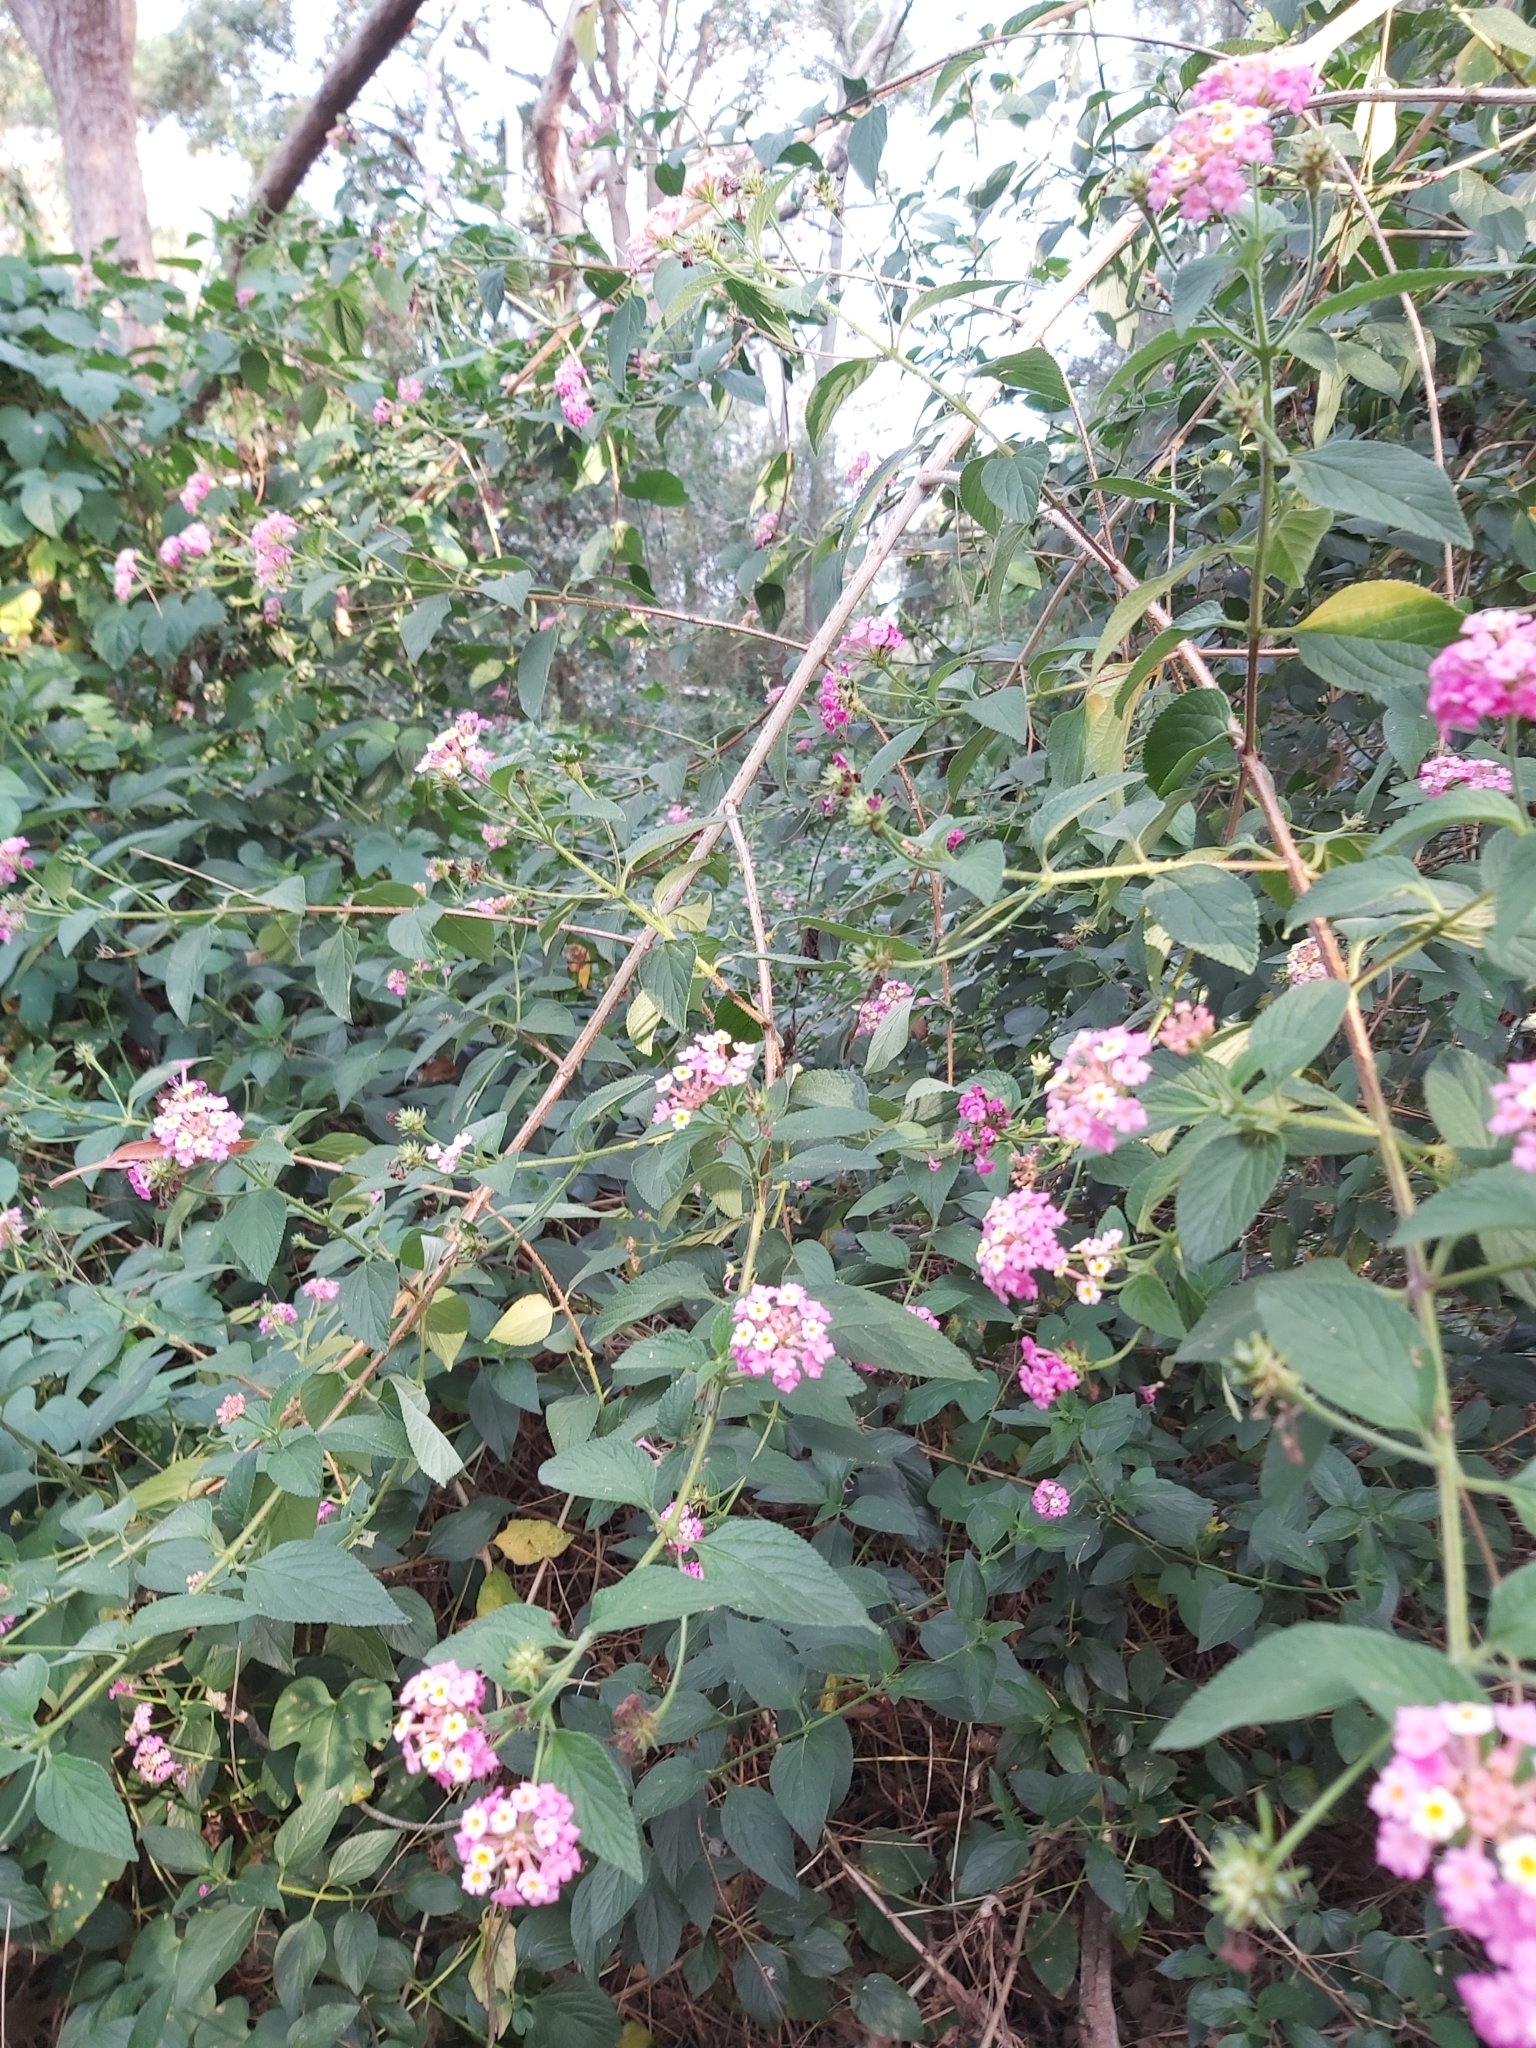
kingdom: Plantae
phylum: Tracheophyta
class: Magnoliopsida
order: Lamiales
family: Verbenaceae
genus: Lantana
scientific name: Lantana camara
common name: Lantana
